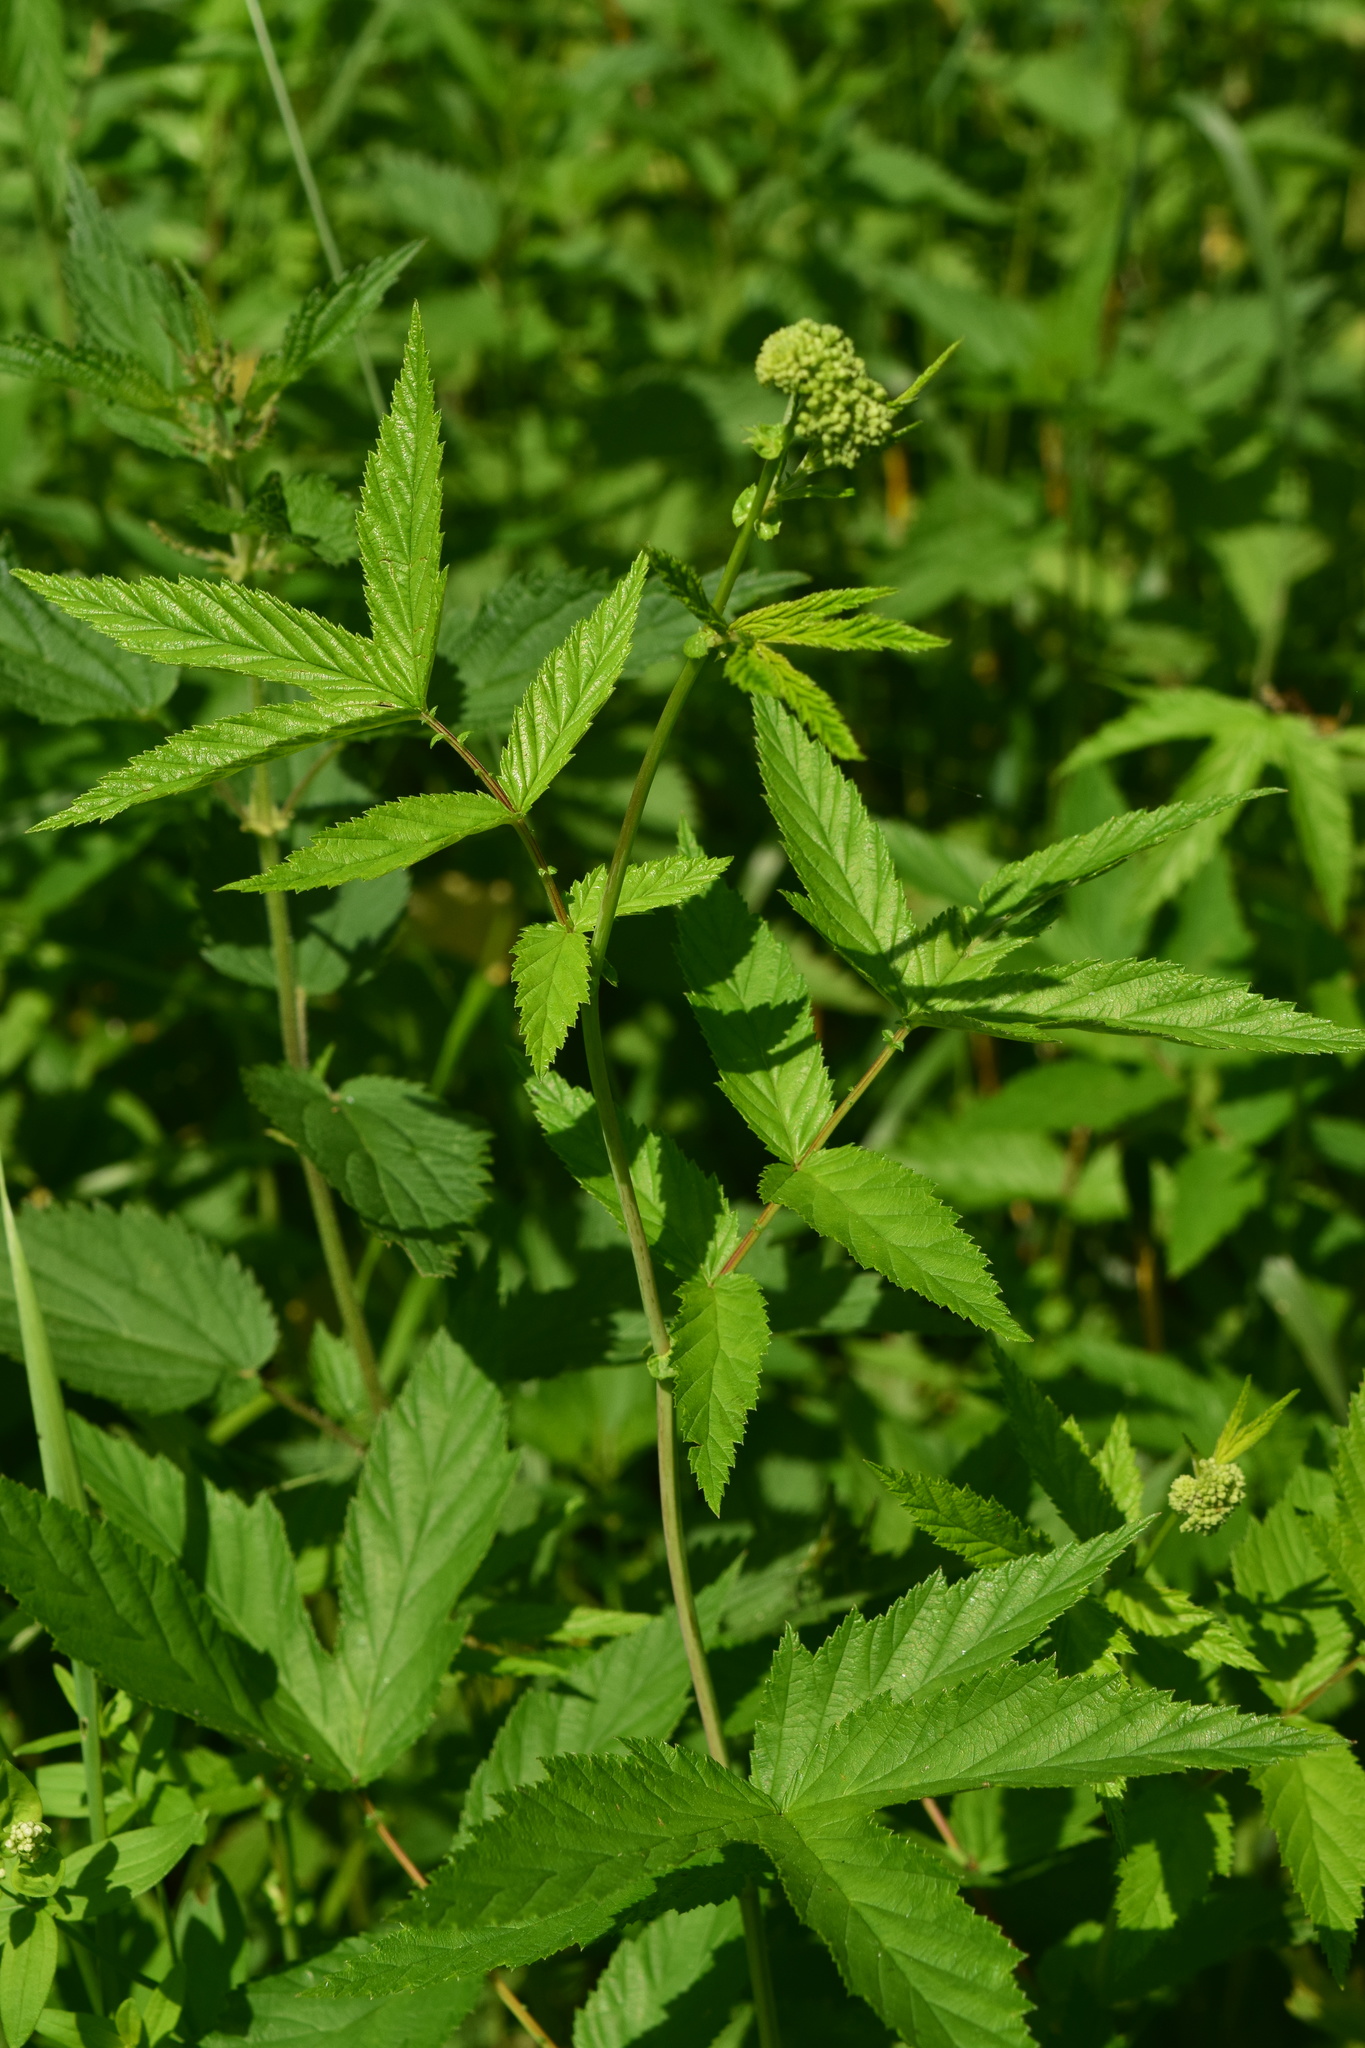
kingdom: Plantae
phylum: Tracheophyta
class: Magnoliopsida
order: Rosales
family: Rosaceae
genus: Filipendula
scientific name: Filipendula ulmaria
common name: Meadowsweet
